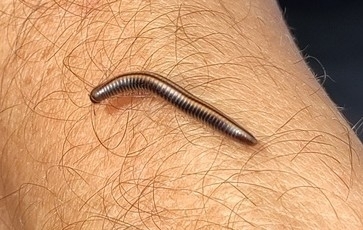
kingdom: Animalia
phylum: Arthropoda
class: Diplopoda
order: Julida
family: Julidae
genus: Ommatoiulus
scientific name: Ommatoiulus sabulosus
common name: Striped millipede
